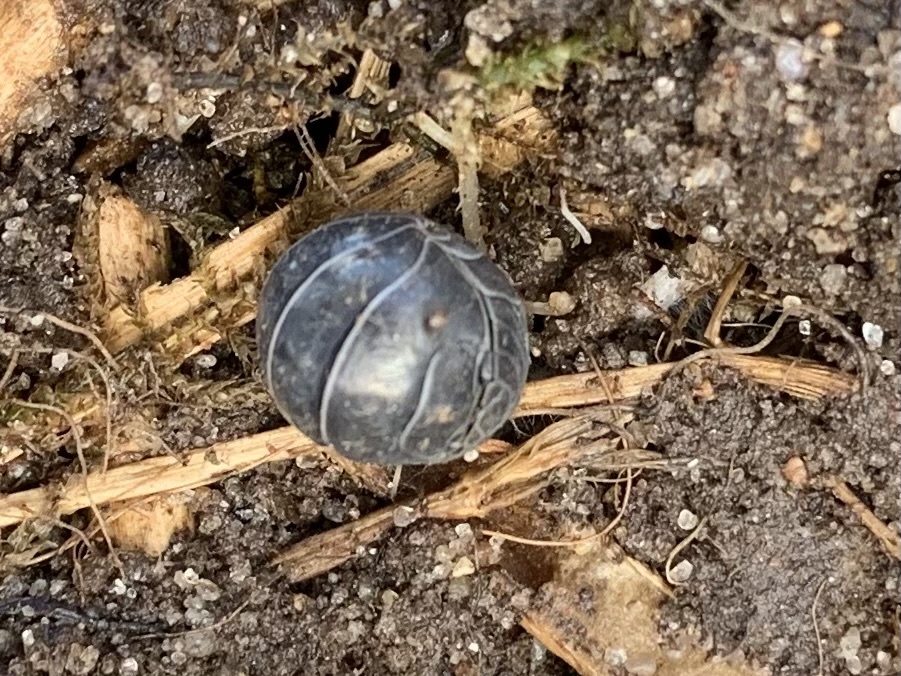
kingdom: Animalia
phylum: Arthropoda
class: Malacostraca
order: Isopoda
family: Armadillidiidae
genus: Armadillidium
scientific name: Armadillidium vulgare
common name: Common pill woodlouse
